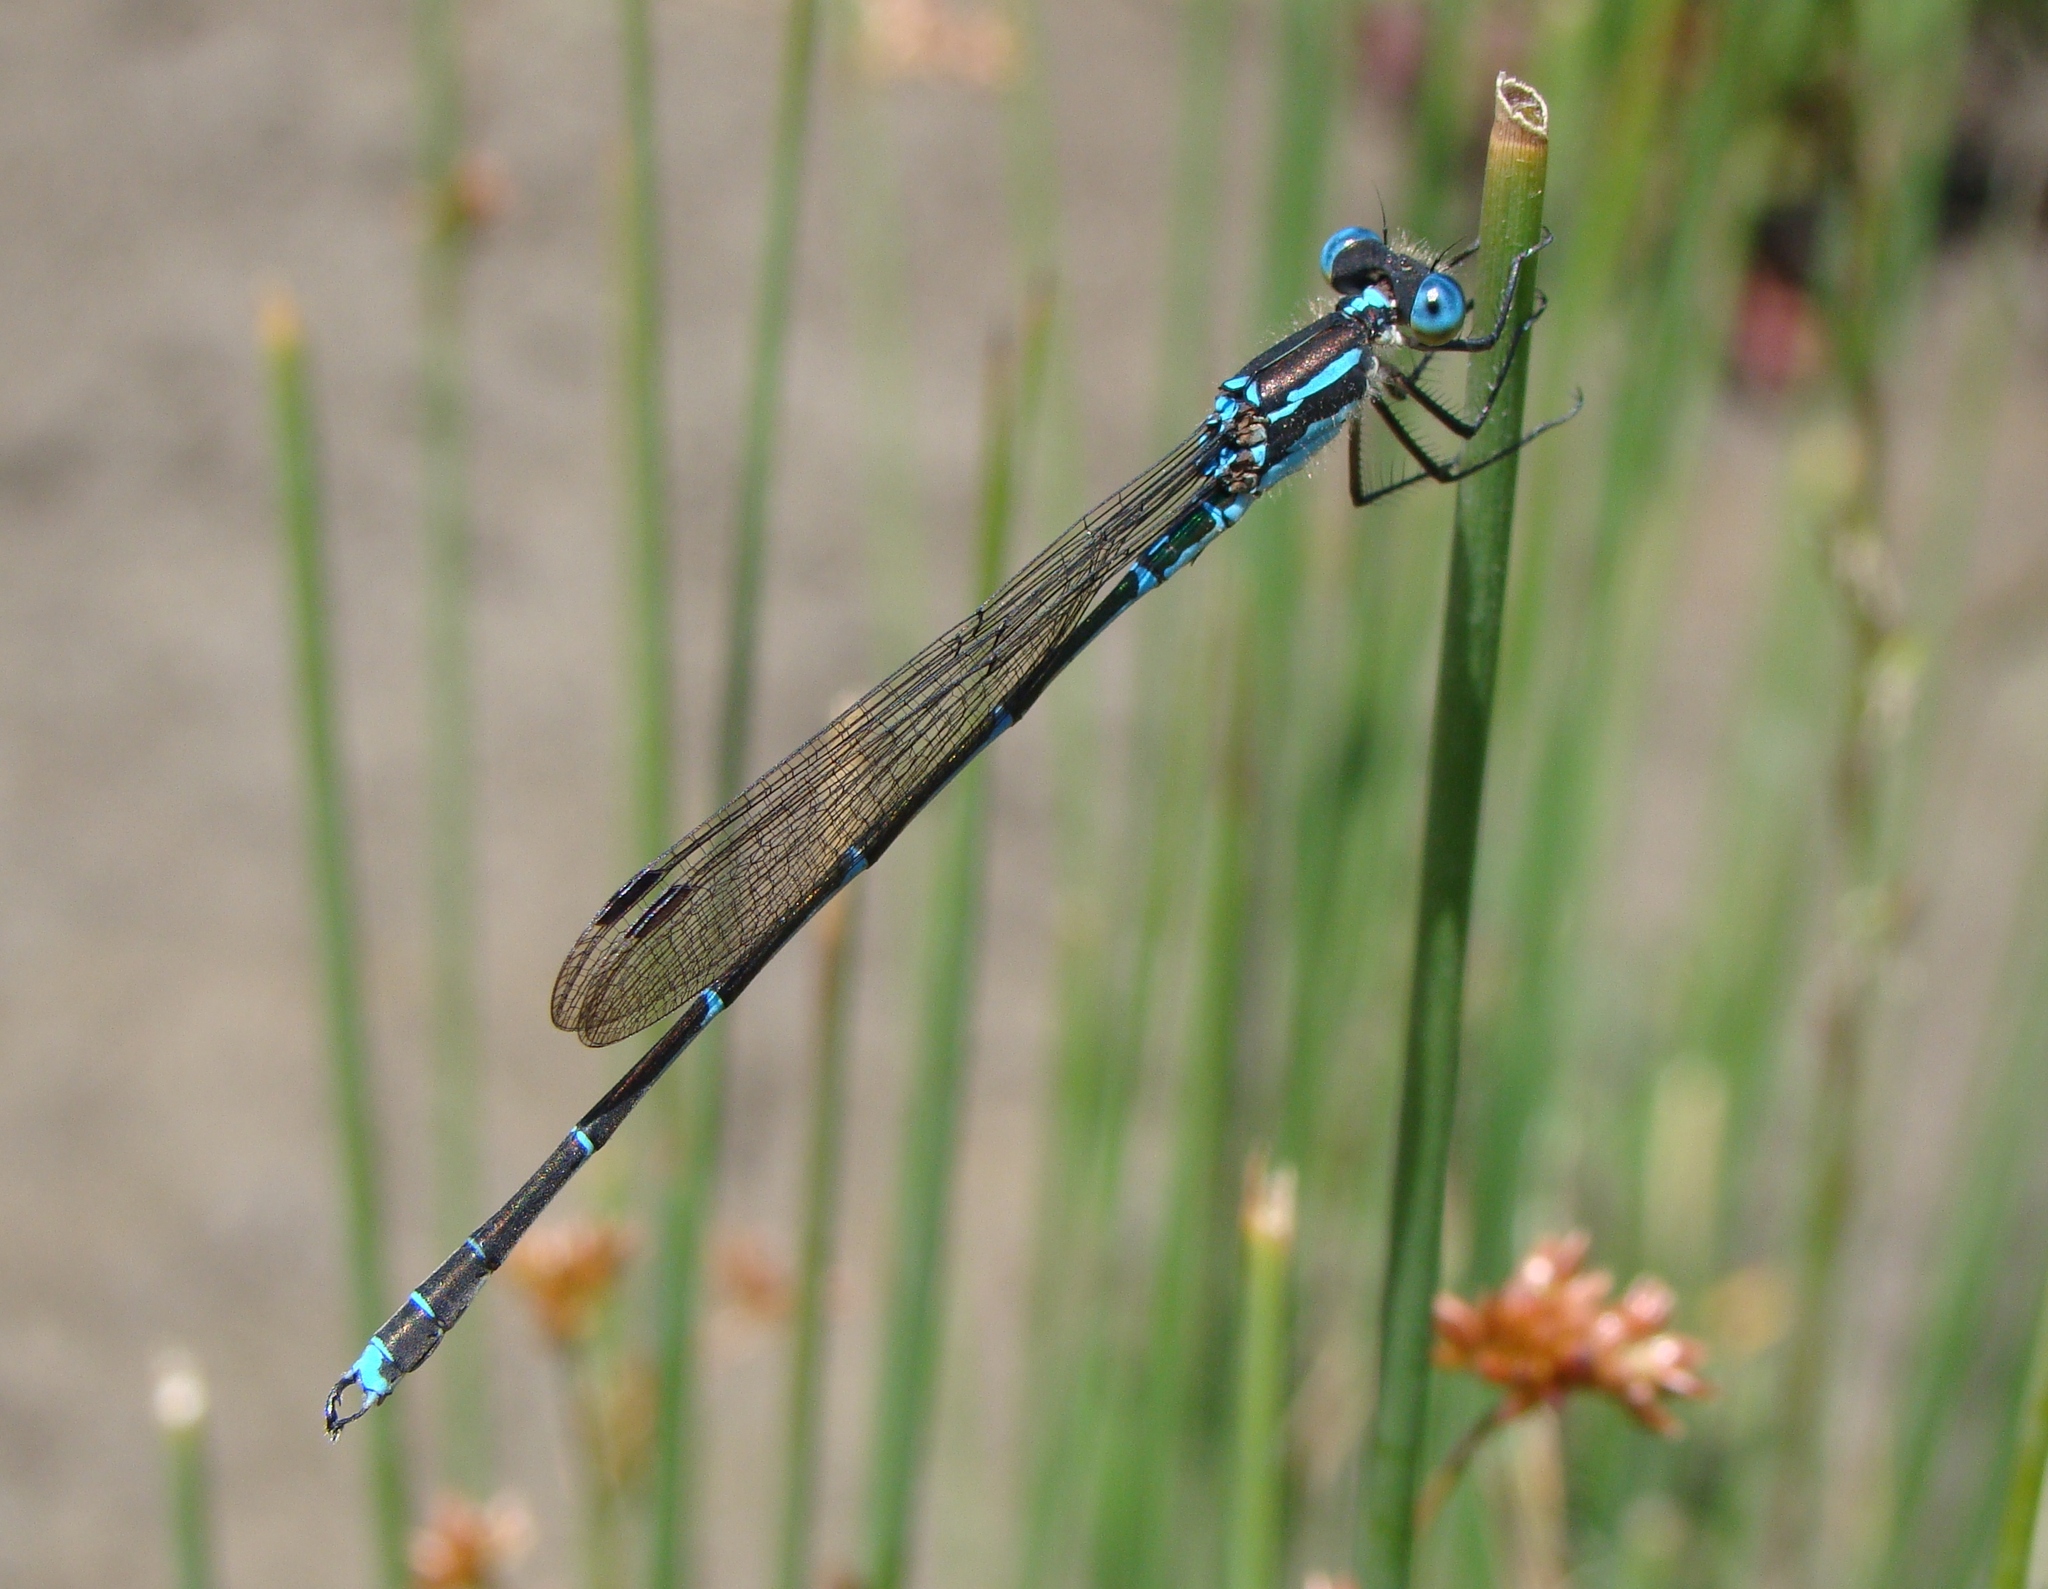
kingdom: Animalia
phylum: Arthropoda
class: Insecta
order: Odonata
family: Lestidae
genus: Austrolestes
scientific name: Austrolestes colensonis
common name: Blue damselfly
